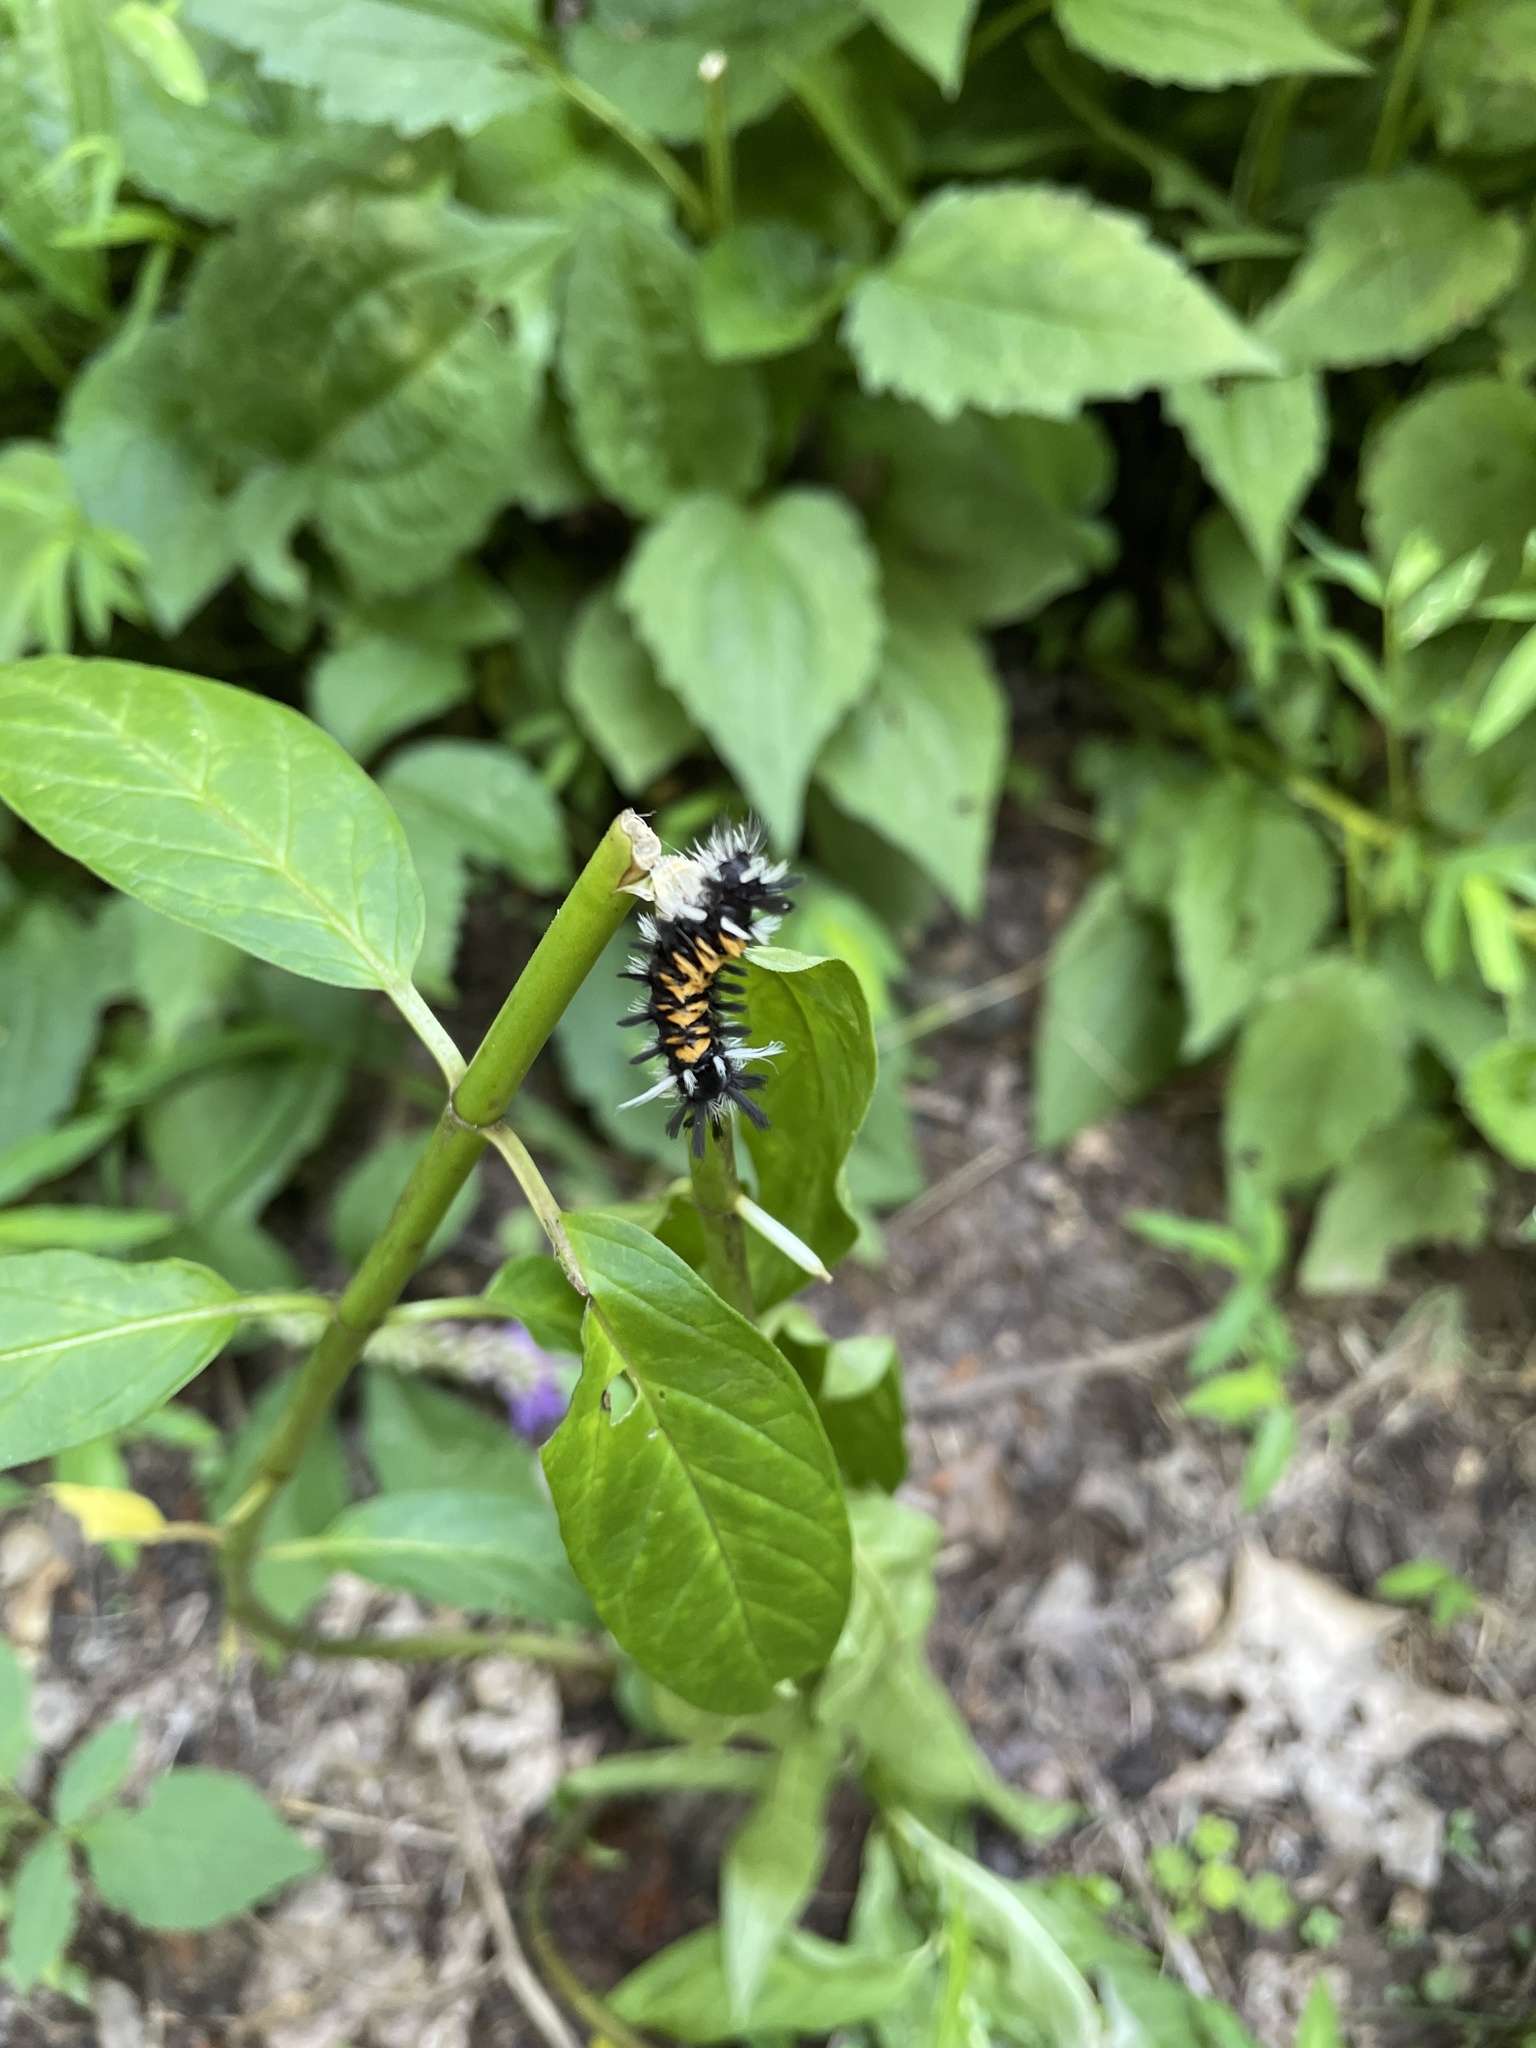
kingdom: Animalia
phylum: Arthropoda
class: Insecta
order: Lepidoptera
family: Erebidae
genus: Euchaetes
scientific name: Euchaetes egle
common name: Milkweed tussock moth
